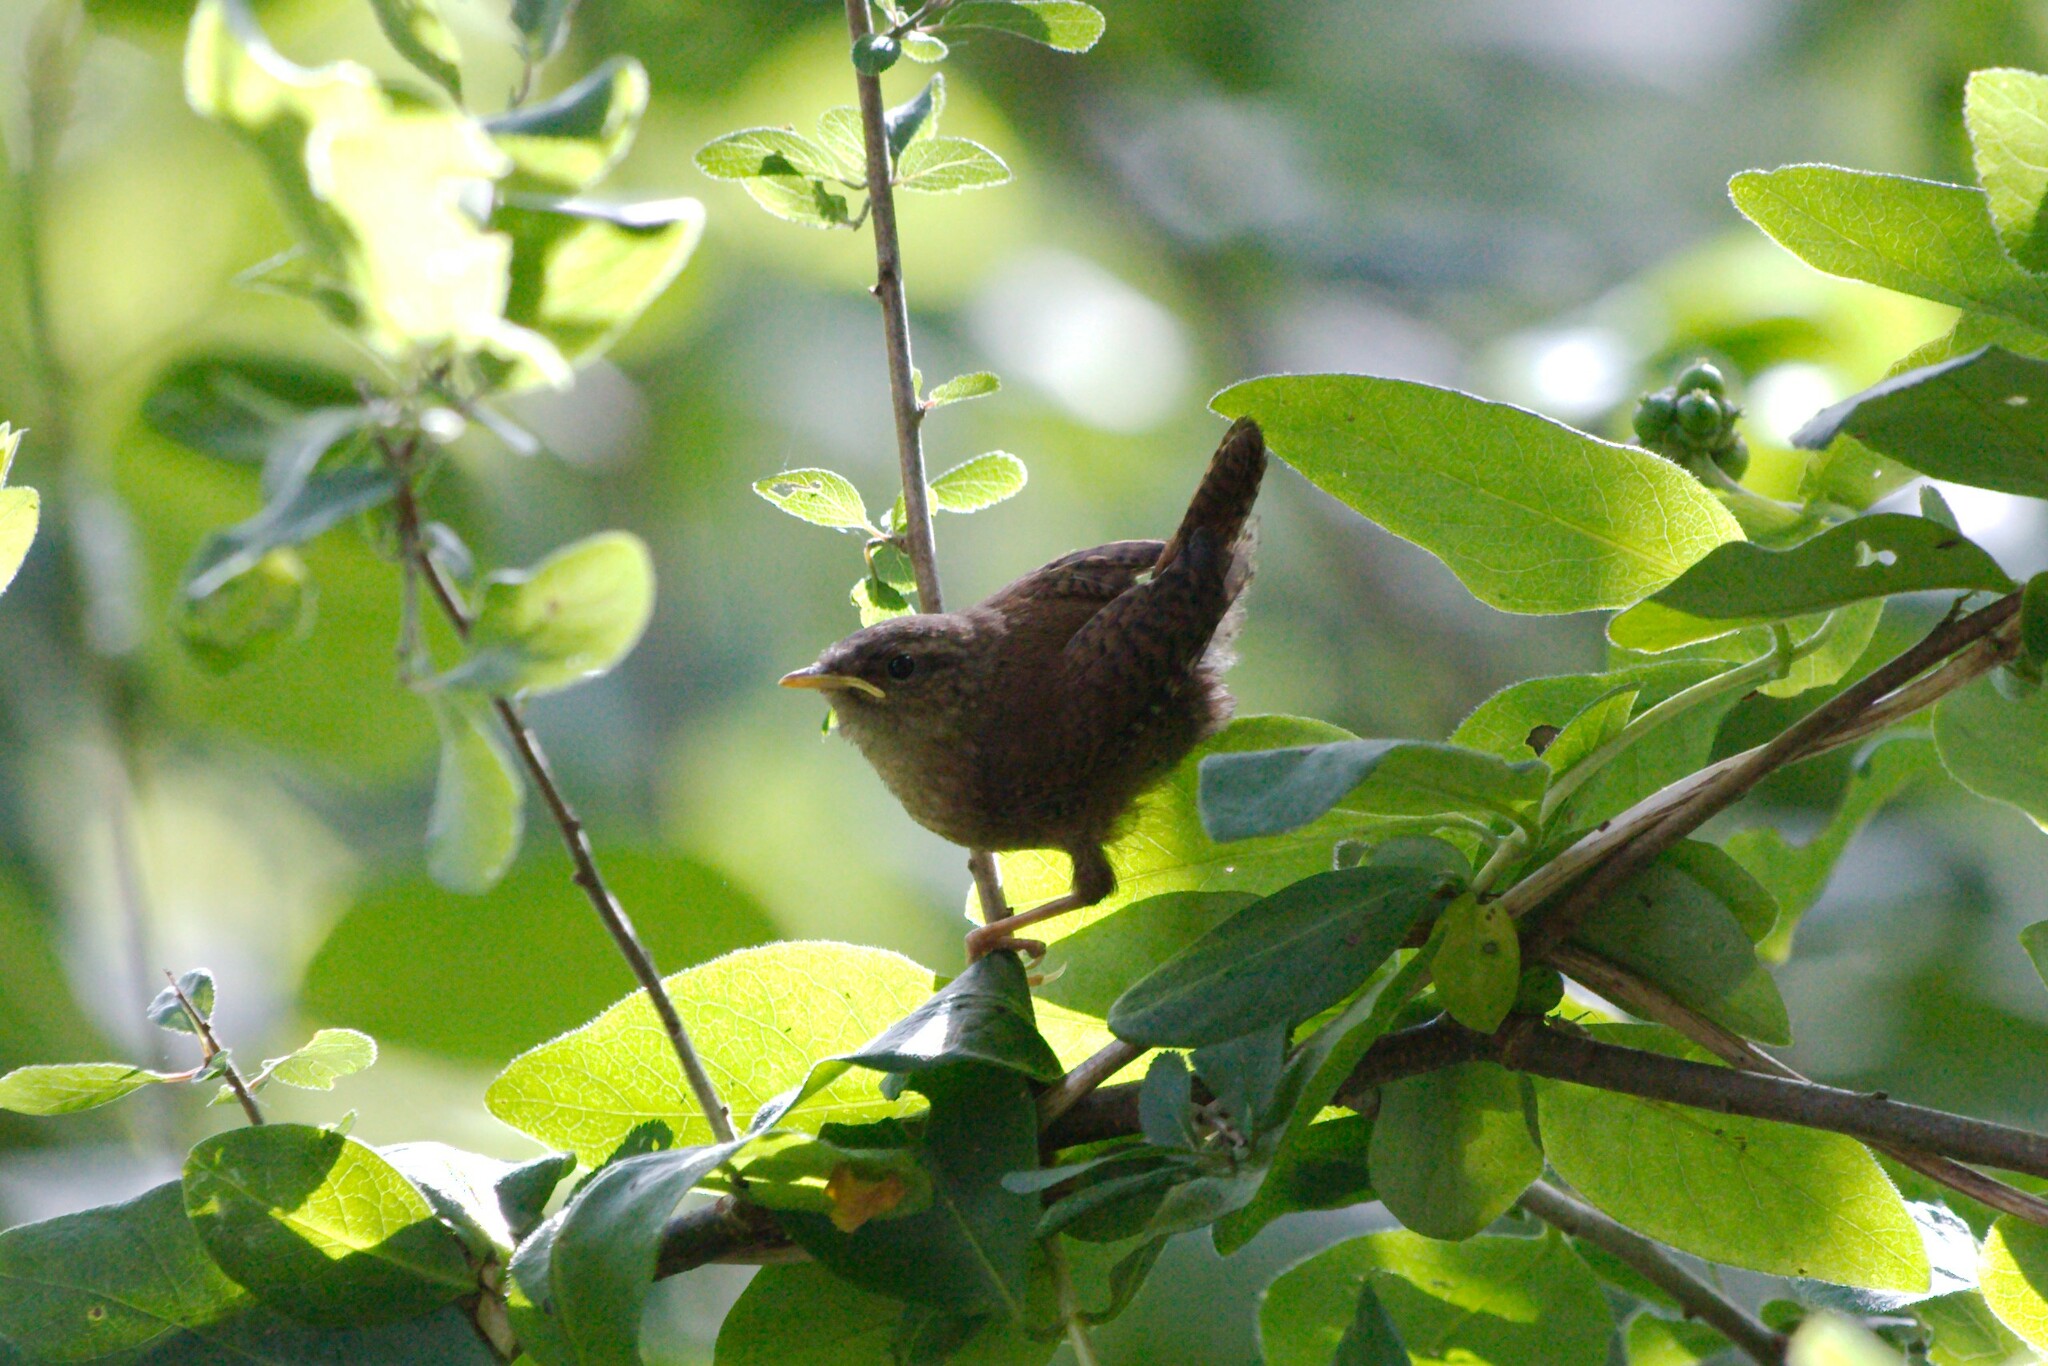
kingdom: Animalia
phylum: Chordata
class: Aves
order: Passeriformes
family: Troglodytidae
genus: Troglodytes
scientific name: Troglodytes troglodytes
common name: Eurasian wren
